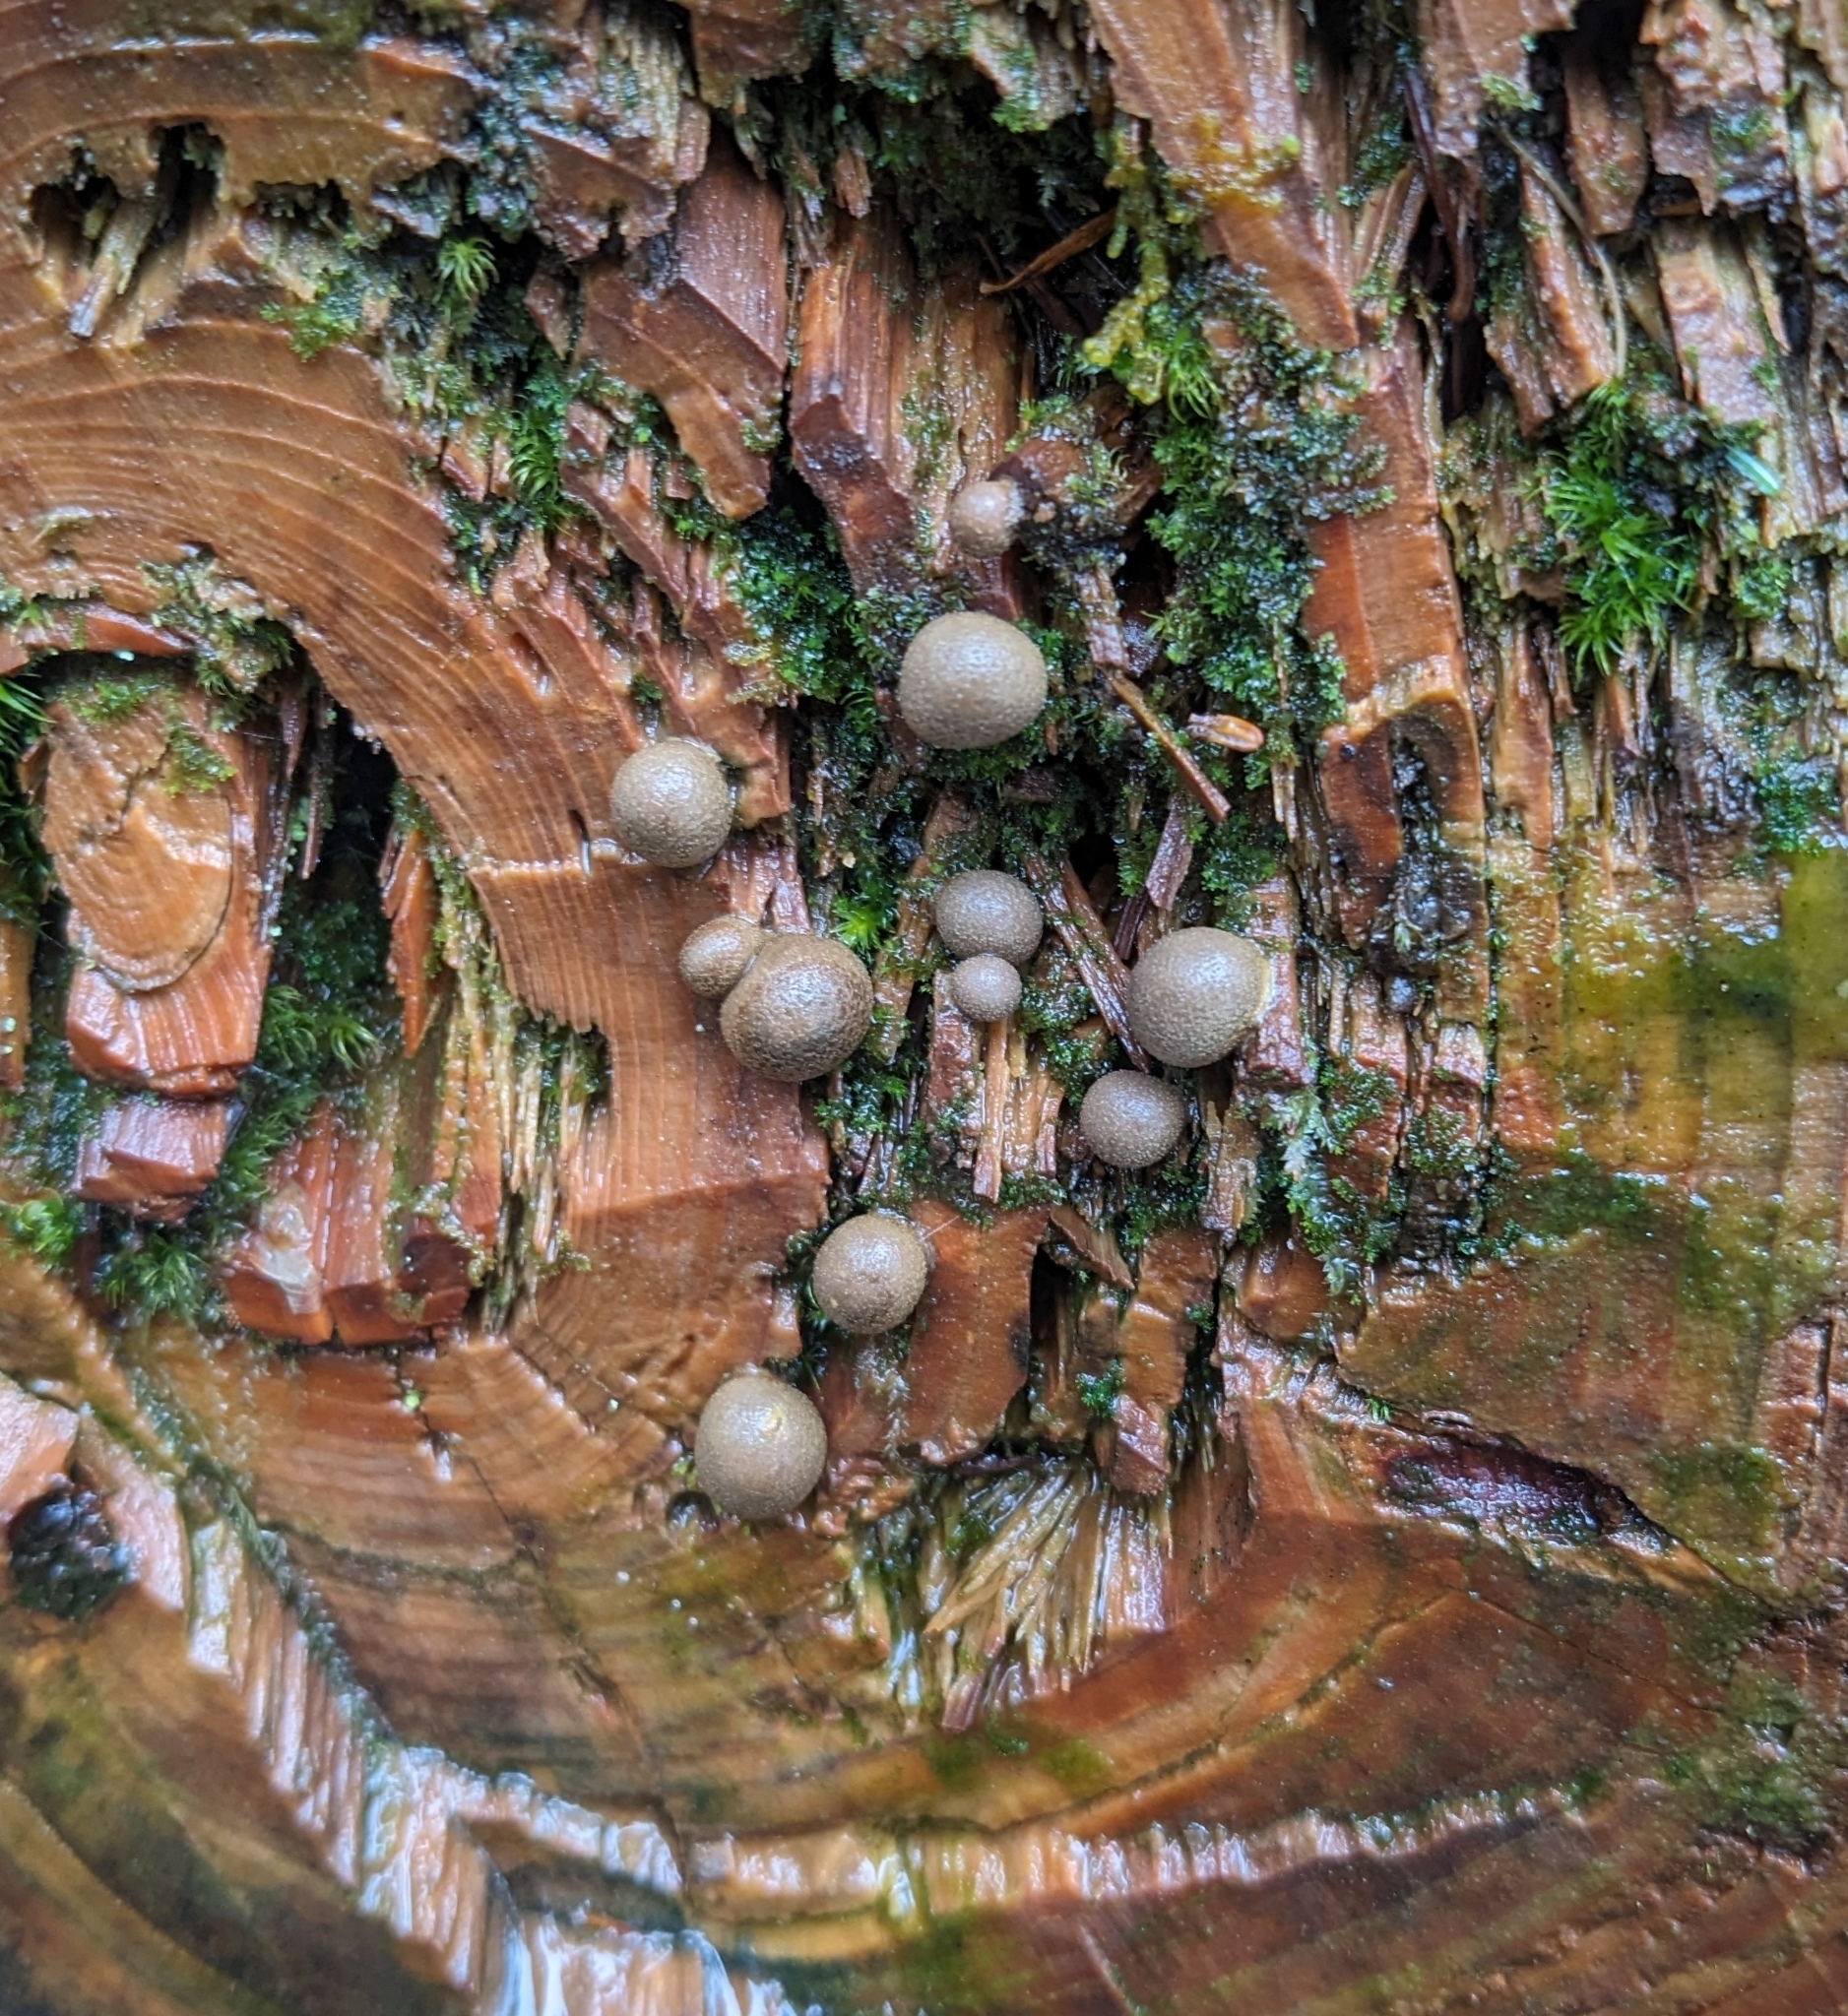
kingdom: Protozoa
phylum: Mycetozoa
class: Myxomycetes
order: Cribrariales
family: Tubiferaceae
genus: Lycogala
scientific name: Lycogala epidendrum
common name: Wolf's milk
